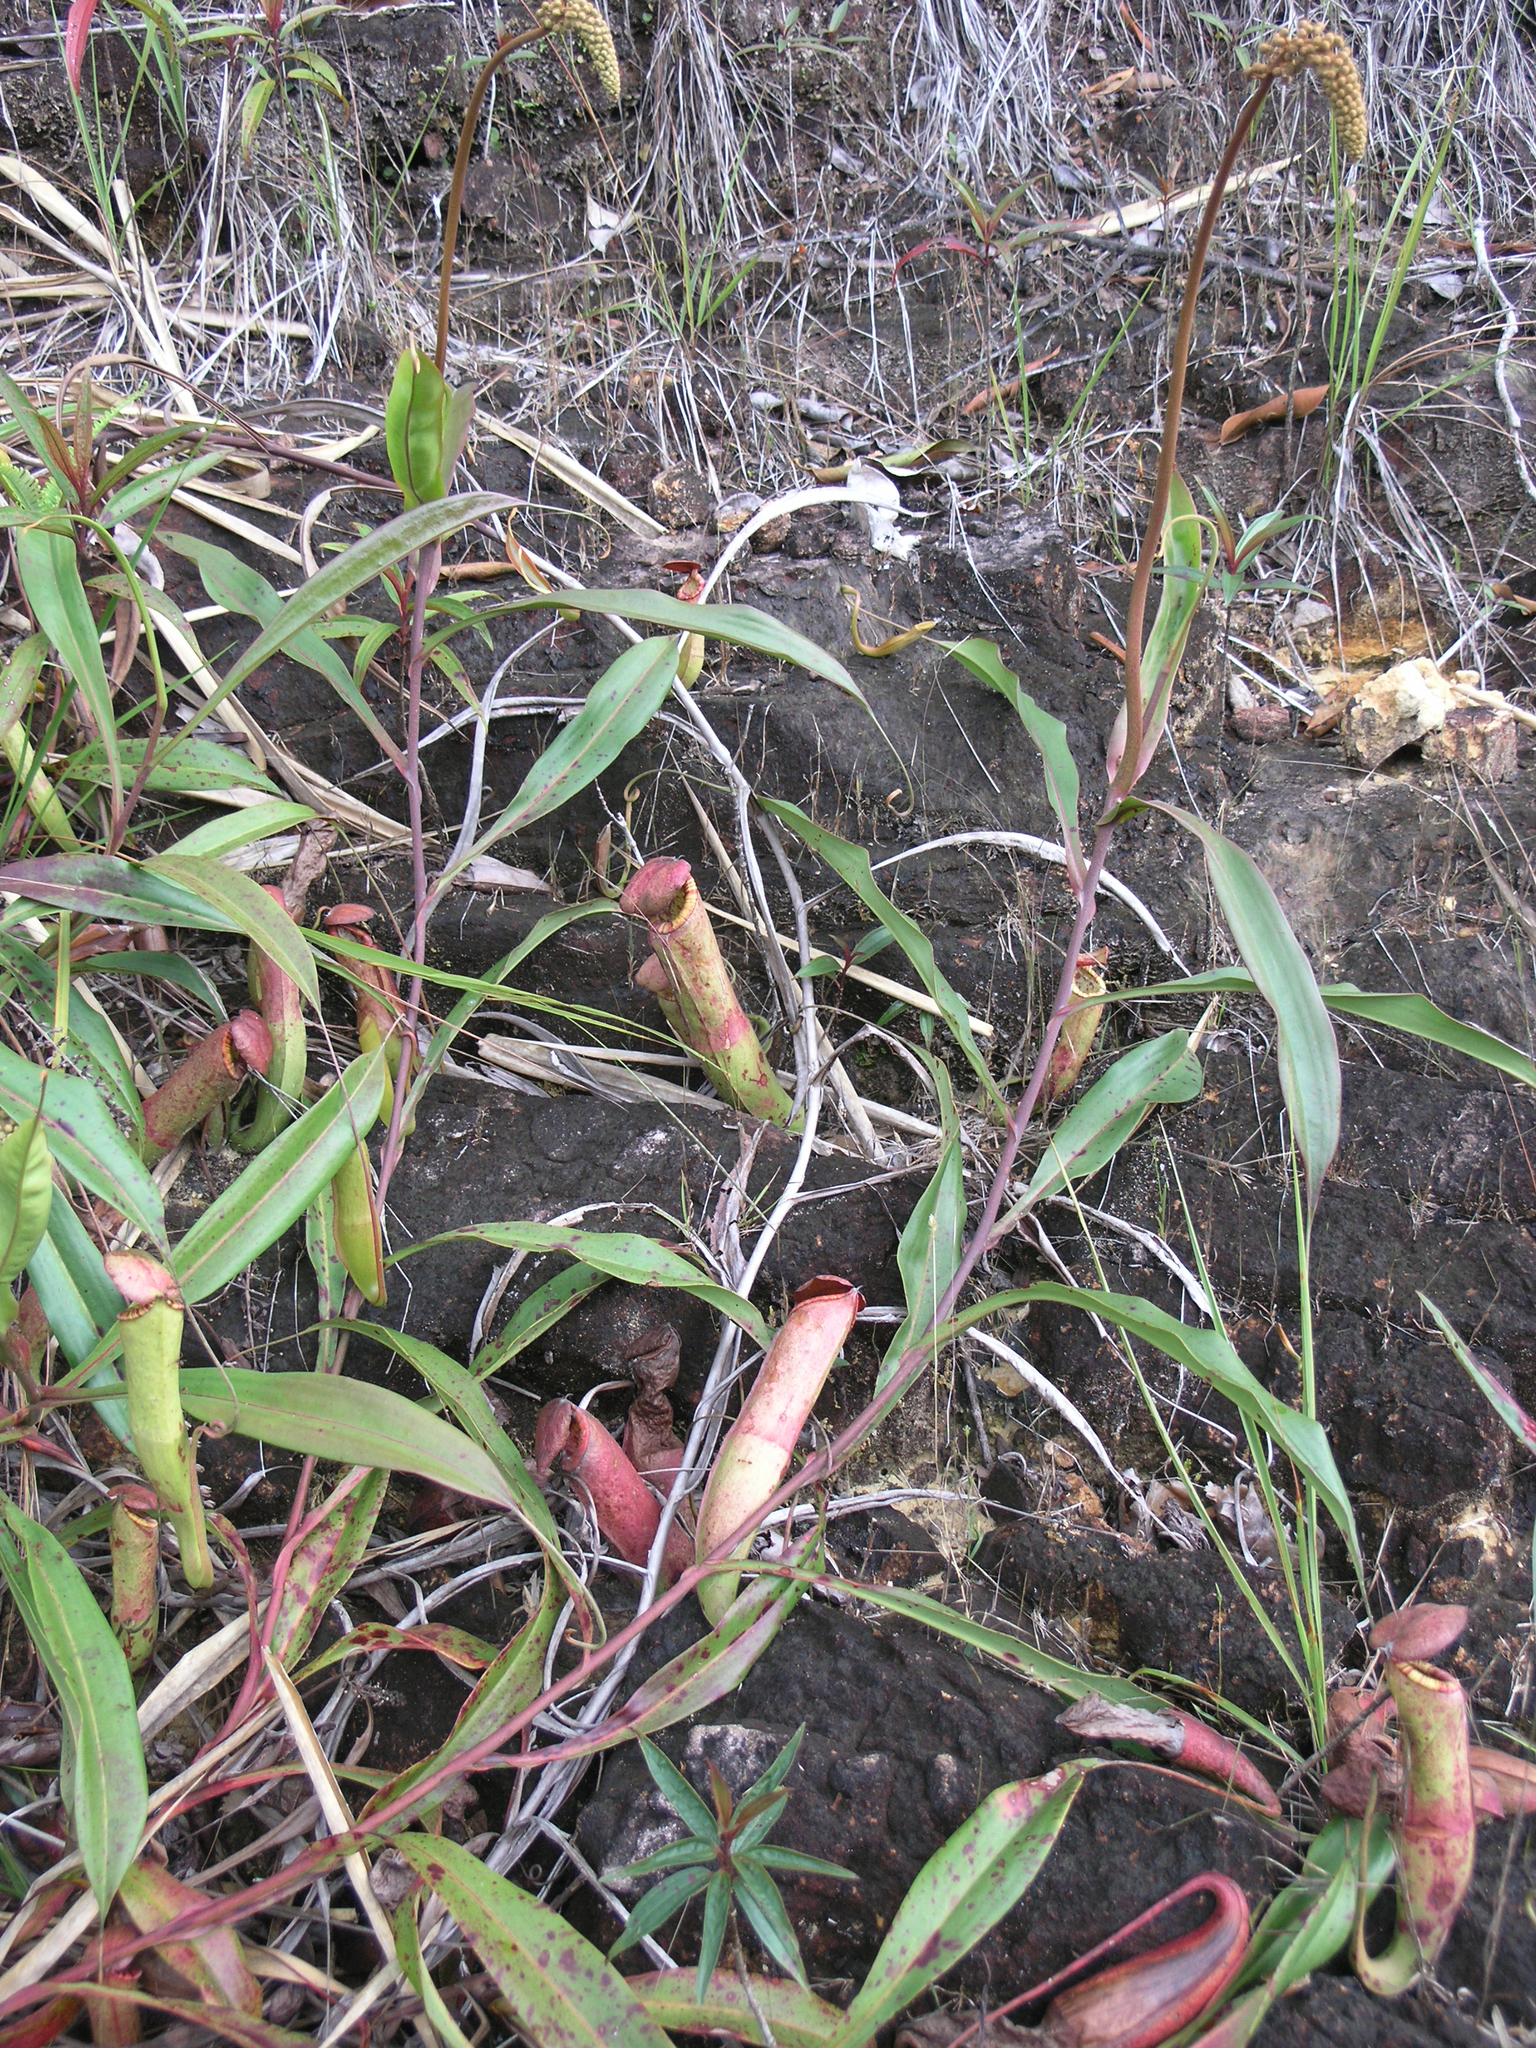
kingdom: Plantae
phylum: Tracheophyta
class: Magnoliopsida
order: Caryophyllales
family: Nepenthaceae
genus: Nepenthes
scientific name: Nepenthes kampotiana
